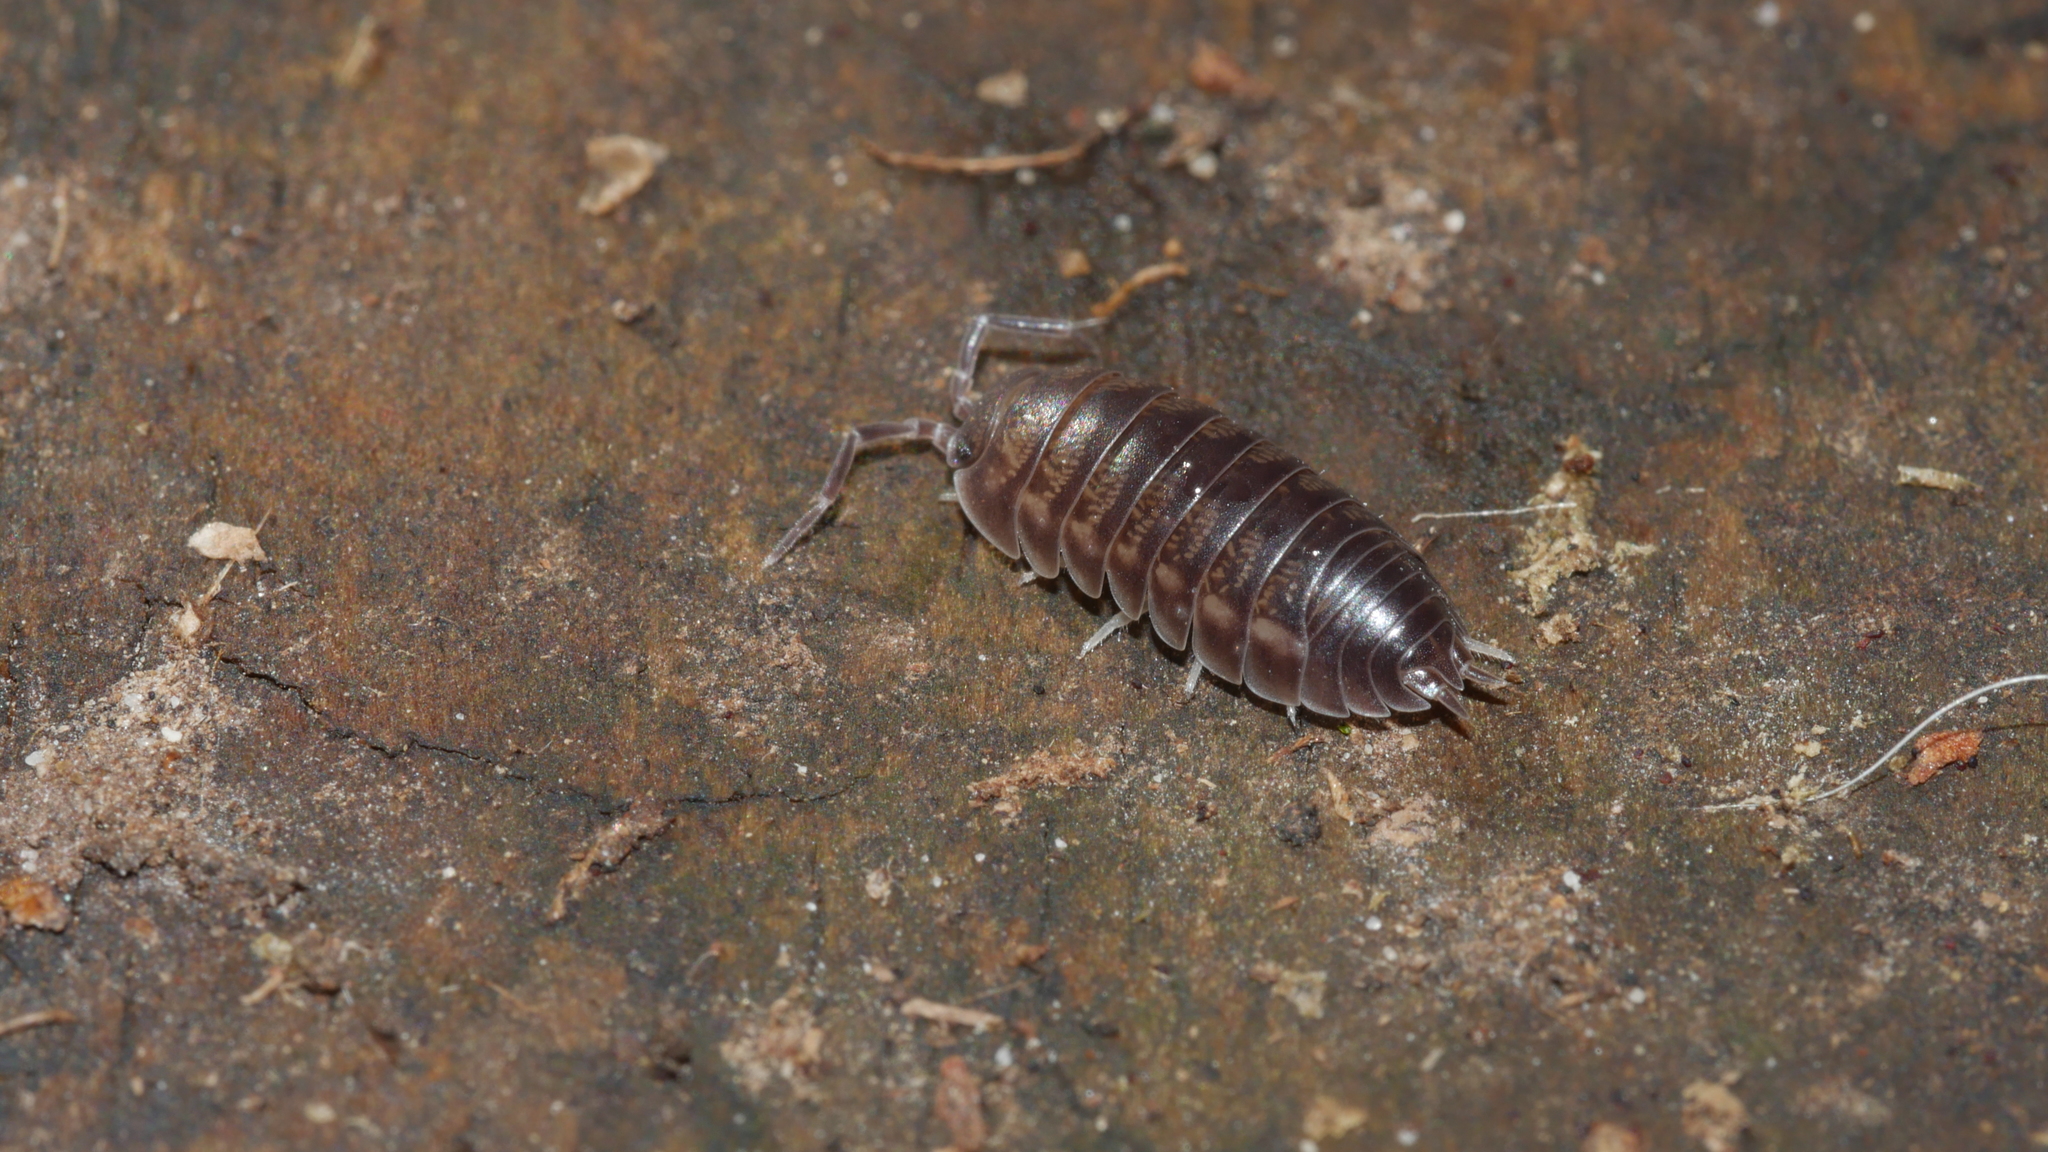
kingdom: Animalia
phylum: Arthropoda
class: Malacostraca
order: Isopoda
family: Cylisticidae
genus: Cylisticus
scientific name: Cylisticus convexus
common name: Curly woodlouse
